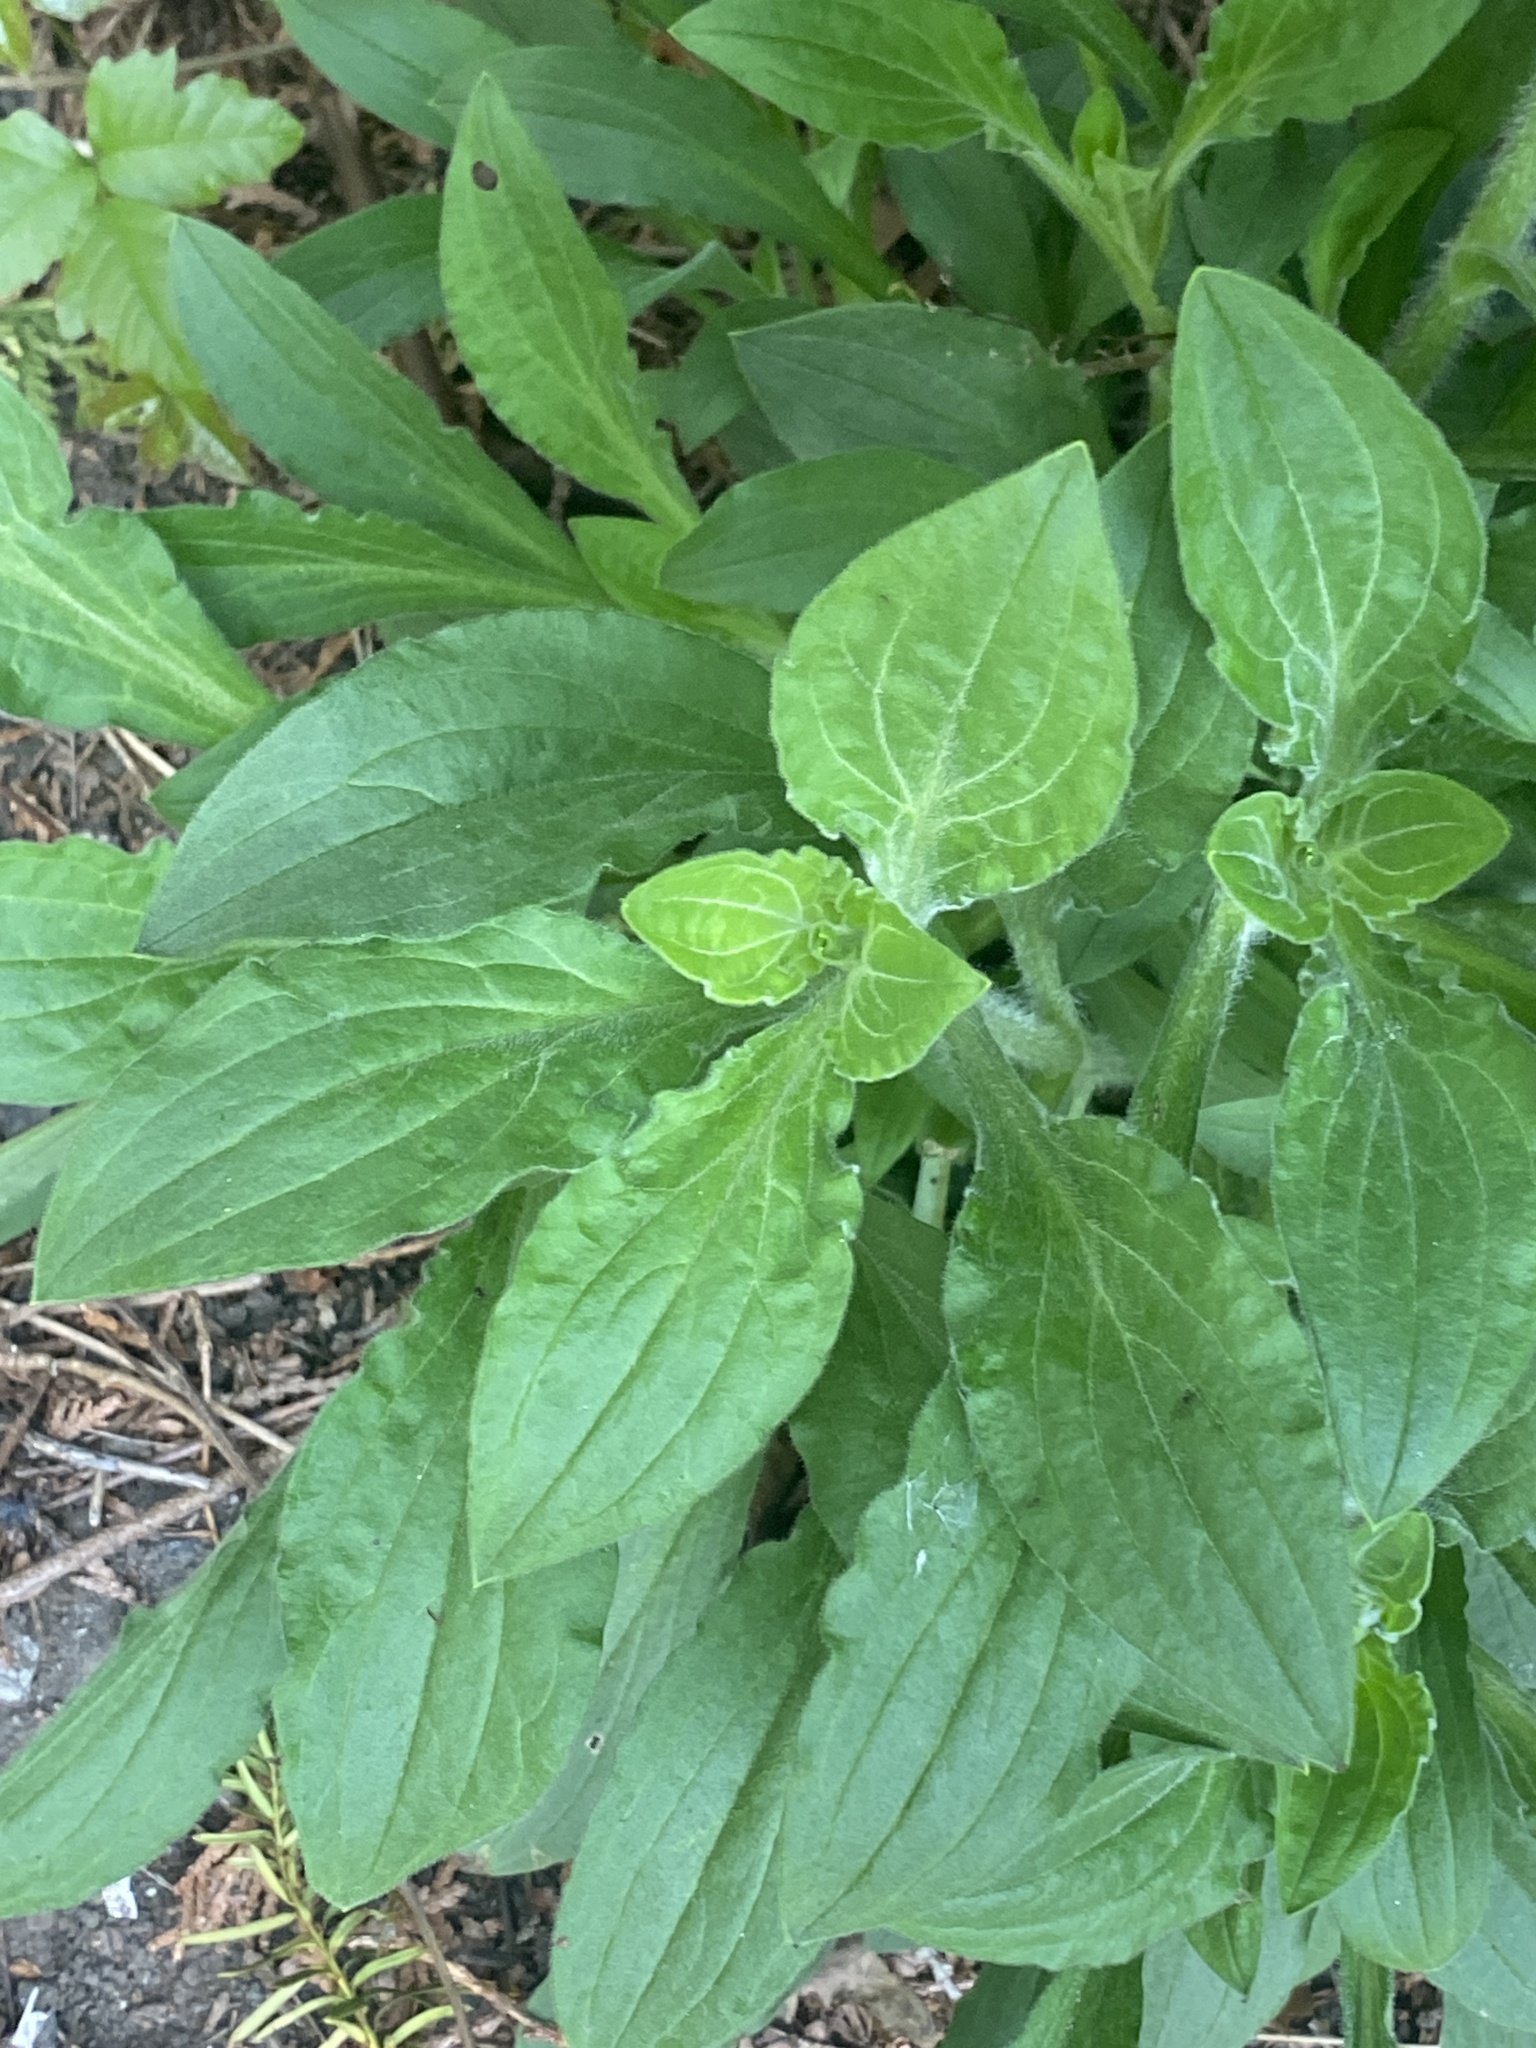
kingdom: Plantae
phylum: Tracheophyta
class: Magnoliopsida
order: Caryophyllales
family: Caryophyllaceae
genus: Silene
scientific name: Silene latifolia
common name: White campion
